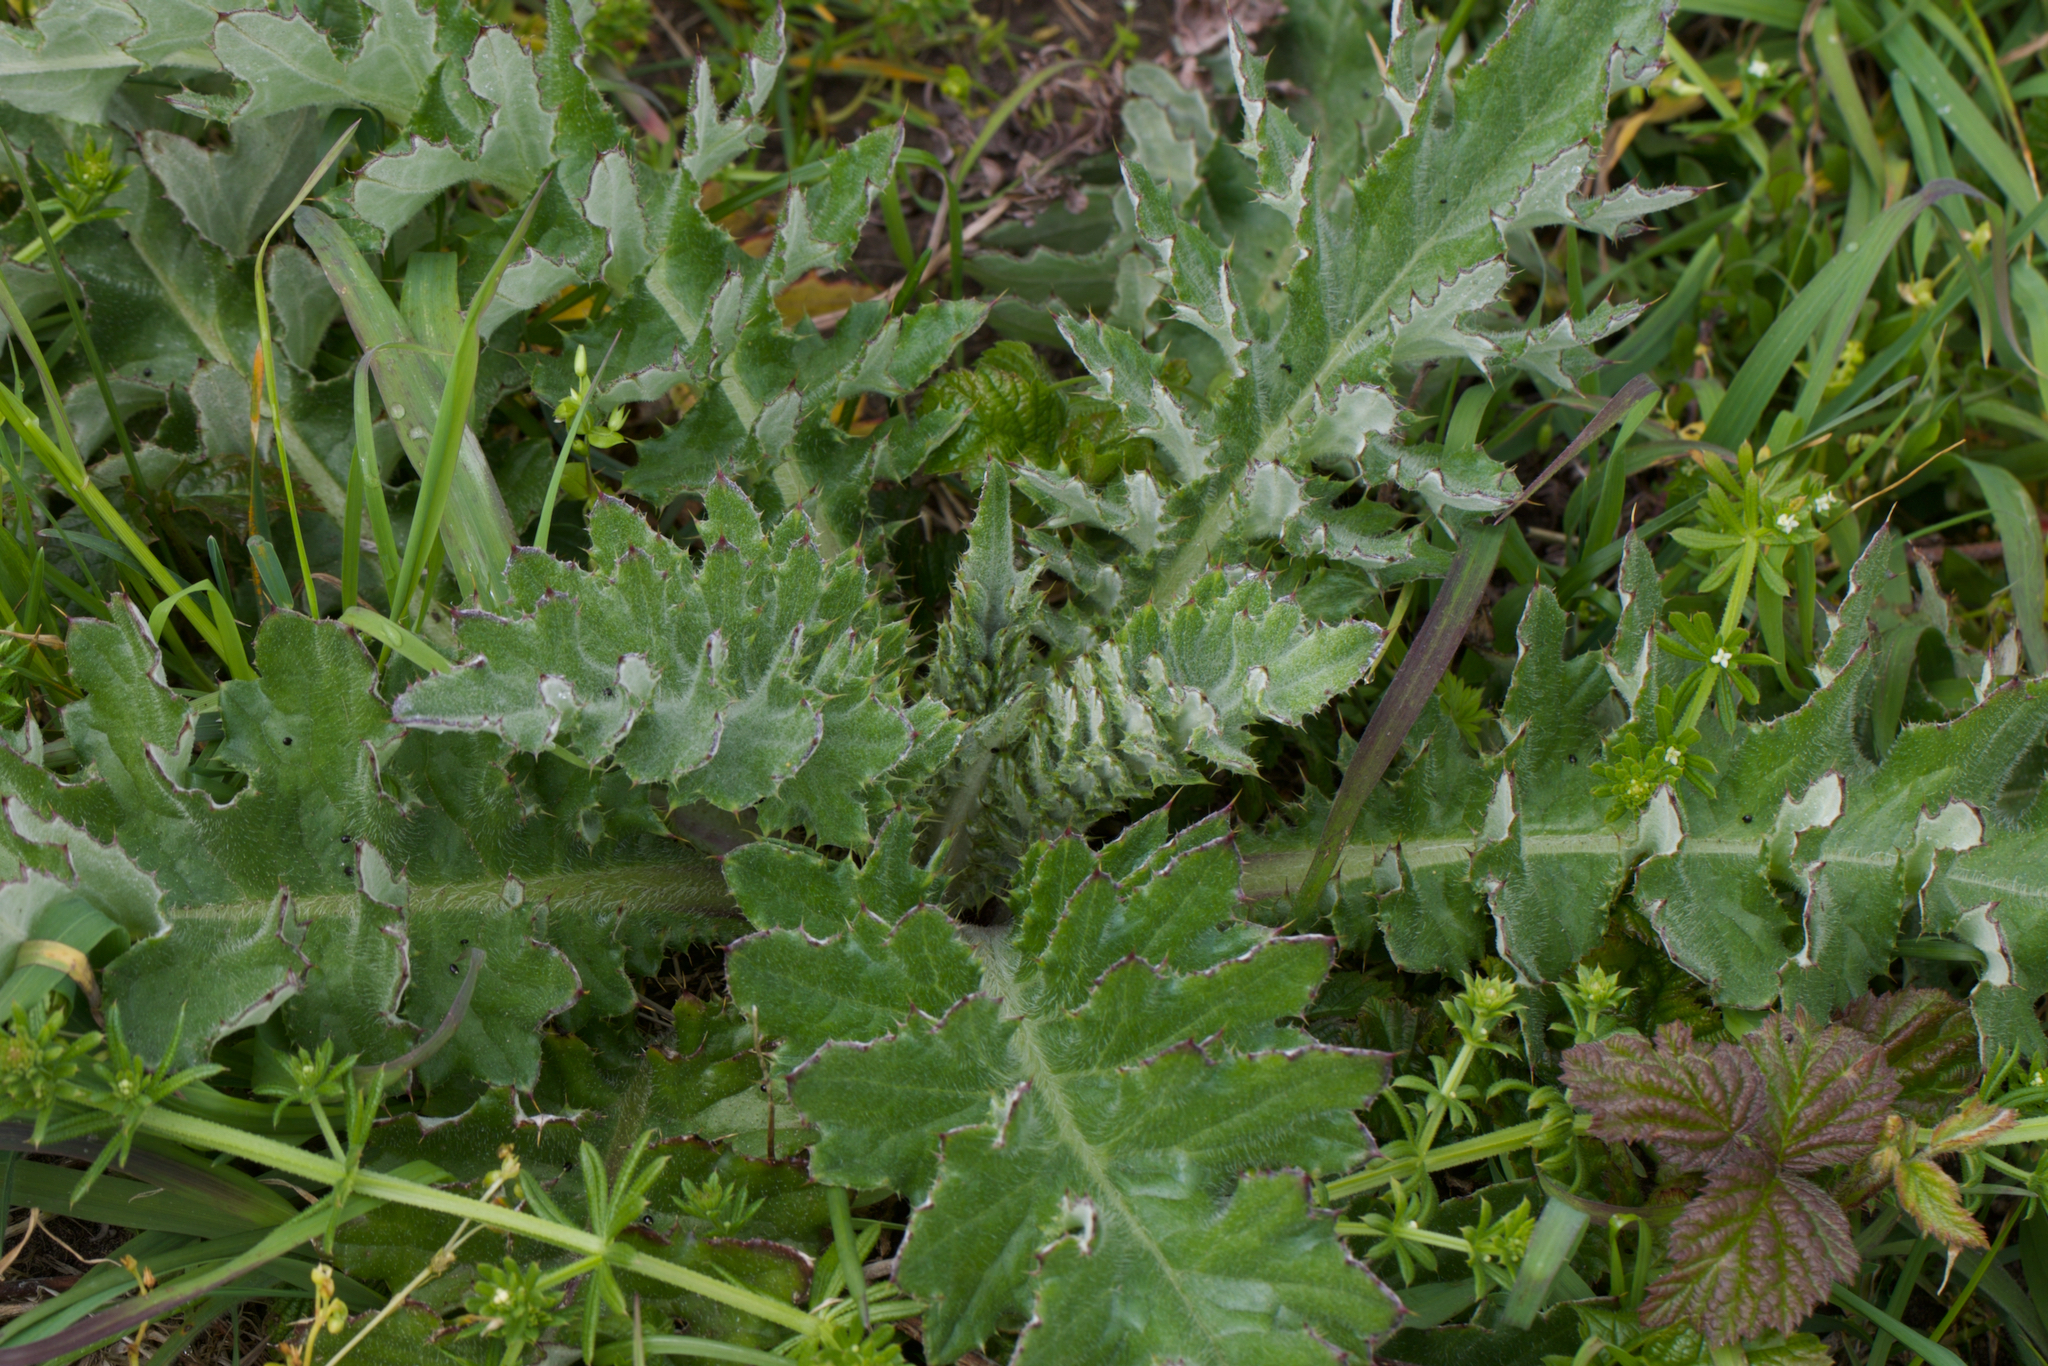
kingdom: Plantae
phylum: Tracheophyta
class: Magnoliopsida
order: Asterales
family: Asteraceae
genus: Cirsium
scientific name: Cirsium andrewsii
